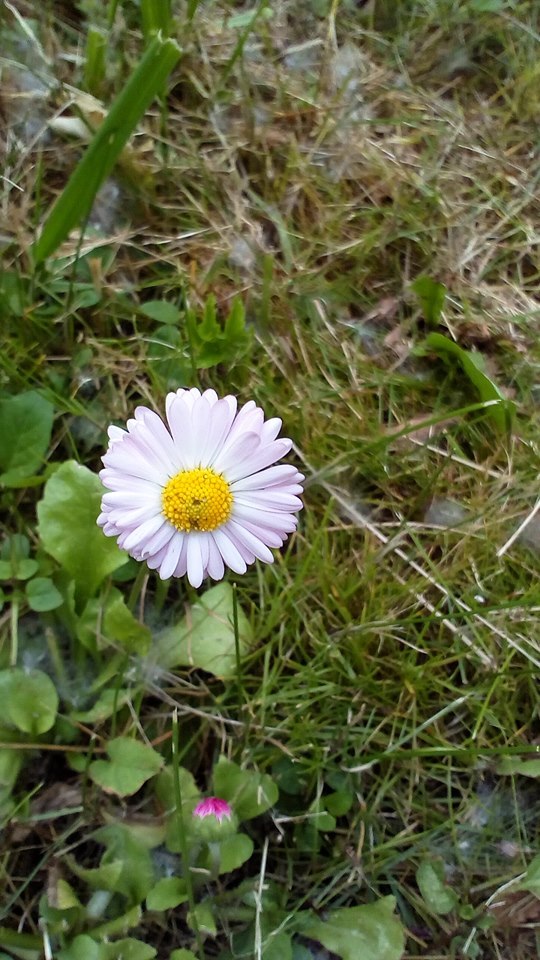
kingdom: Plantae
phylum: Tracheophyta
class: Magnoliopsida
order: Asterales
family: Asteraceae
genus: Bellis
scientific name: Bellis perennis
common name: Lawndaisy
